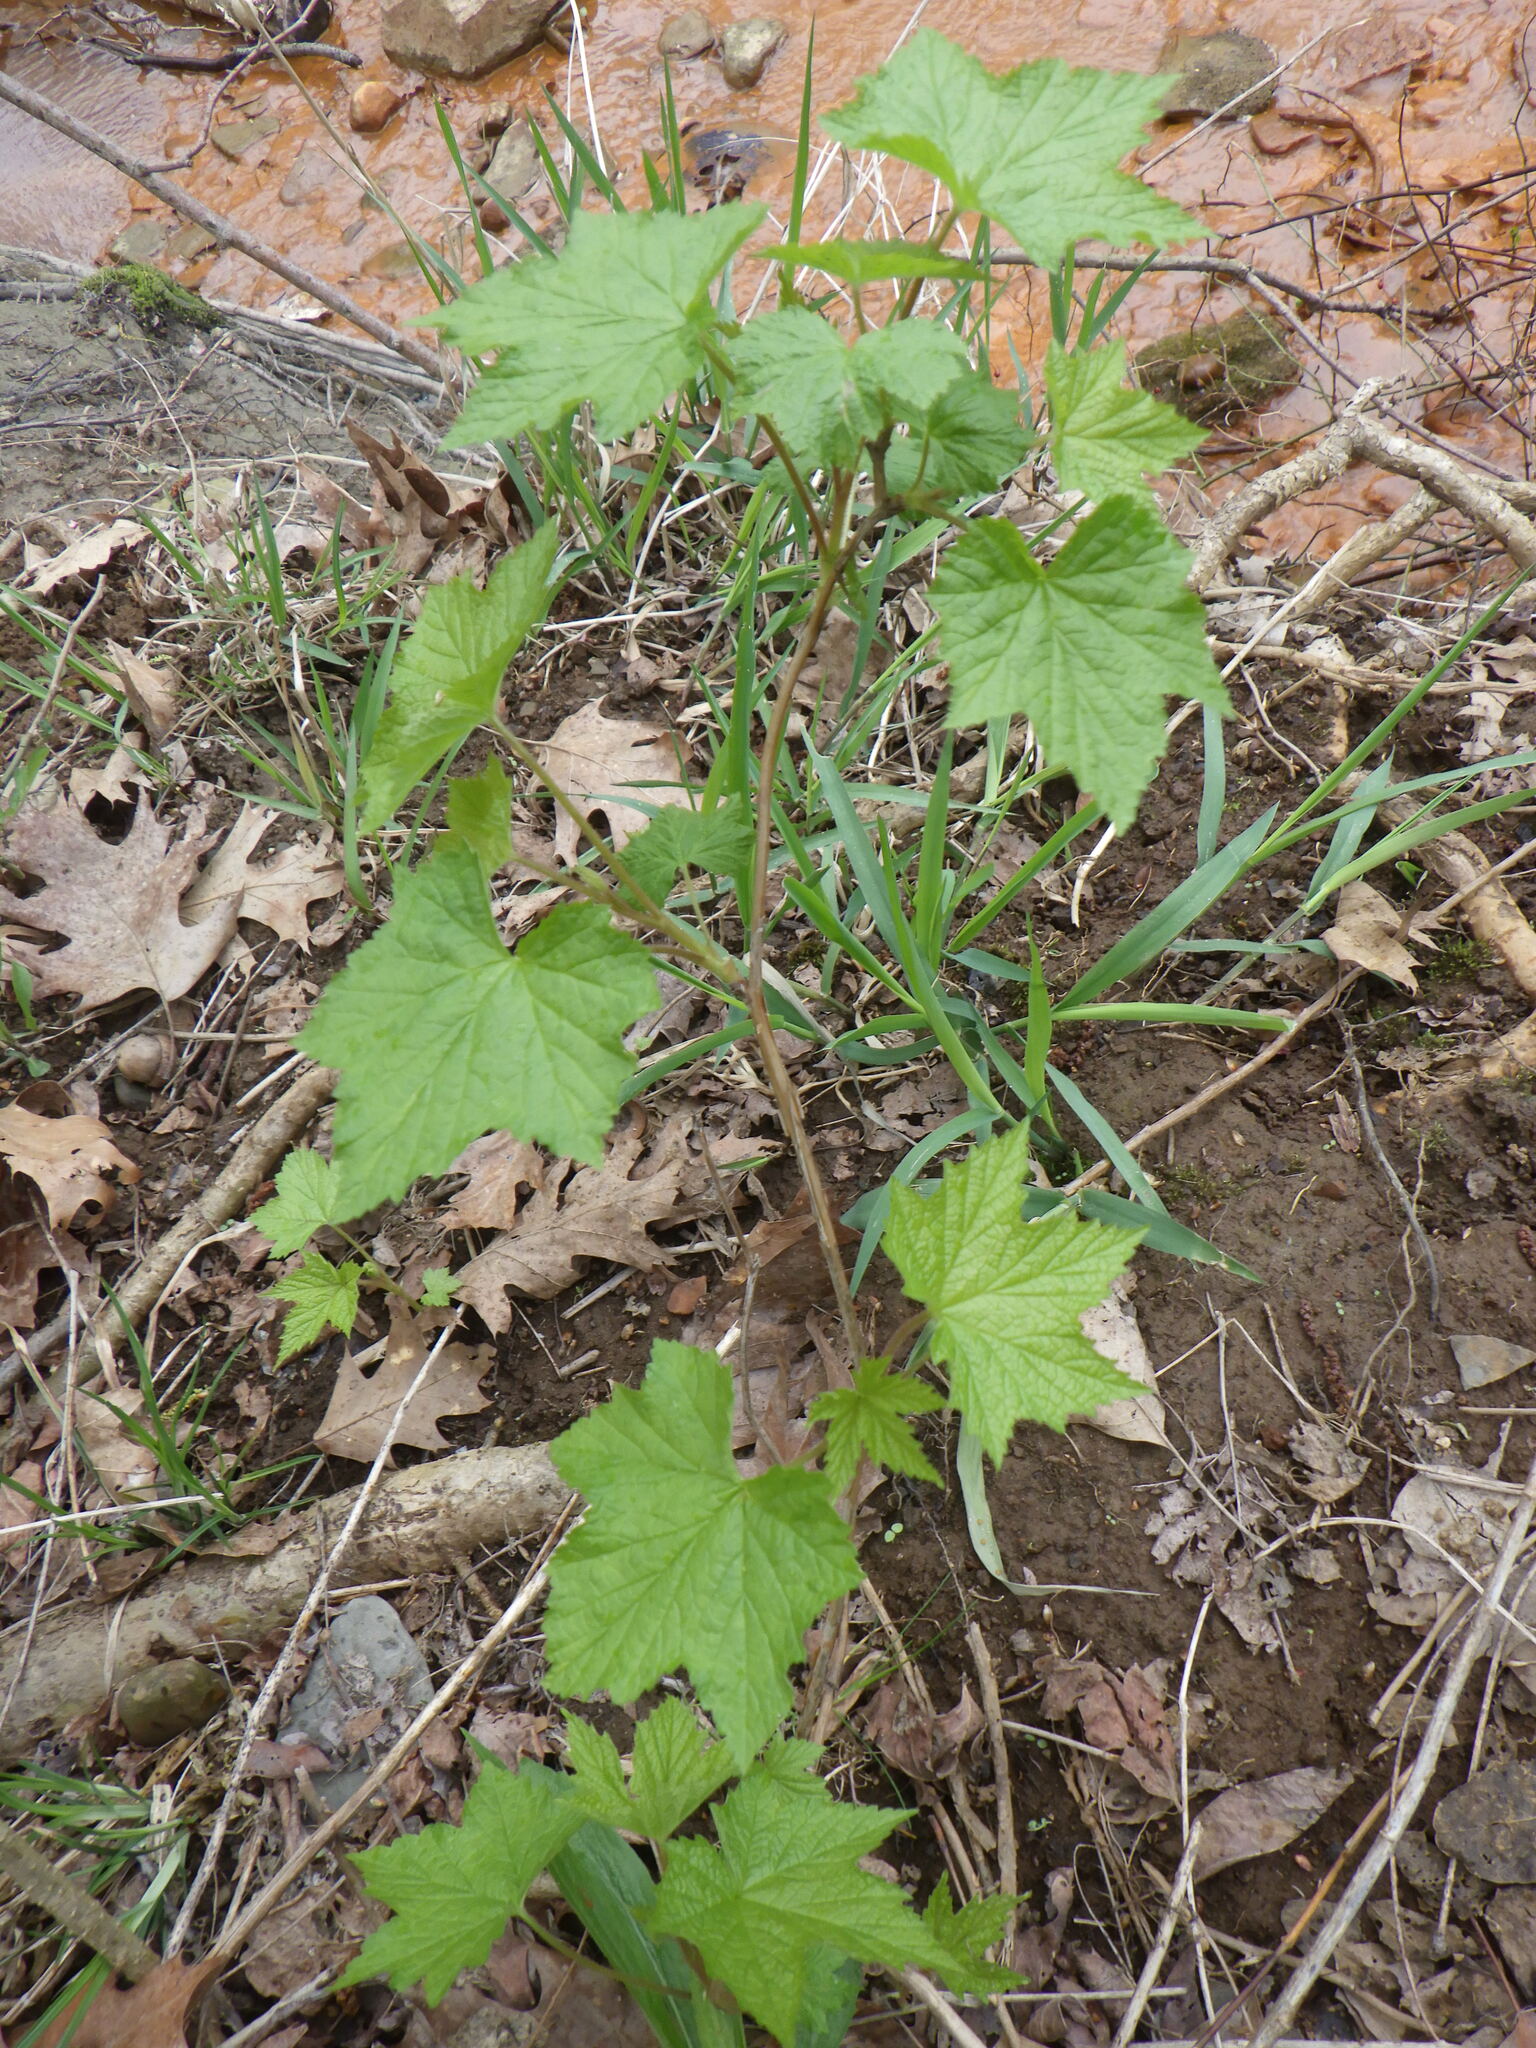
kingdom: Plantae
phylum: Tracheophyta
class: Magnoliopsida
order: Rosales
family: Rosaceae
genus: Rubus
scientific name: Rubus odoratus
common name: Purple-flowered raspberry
